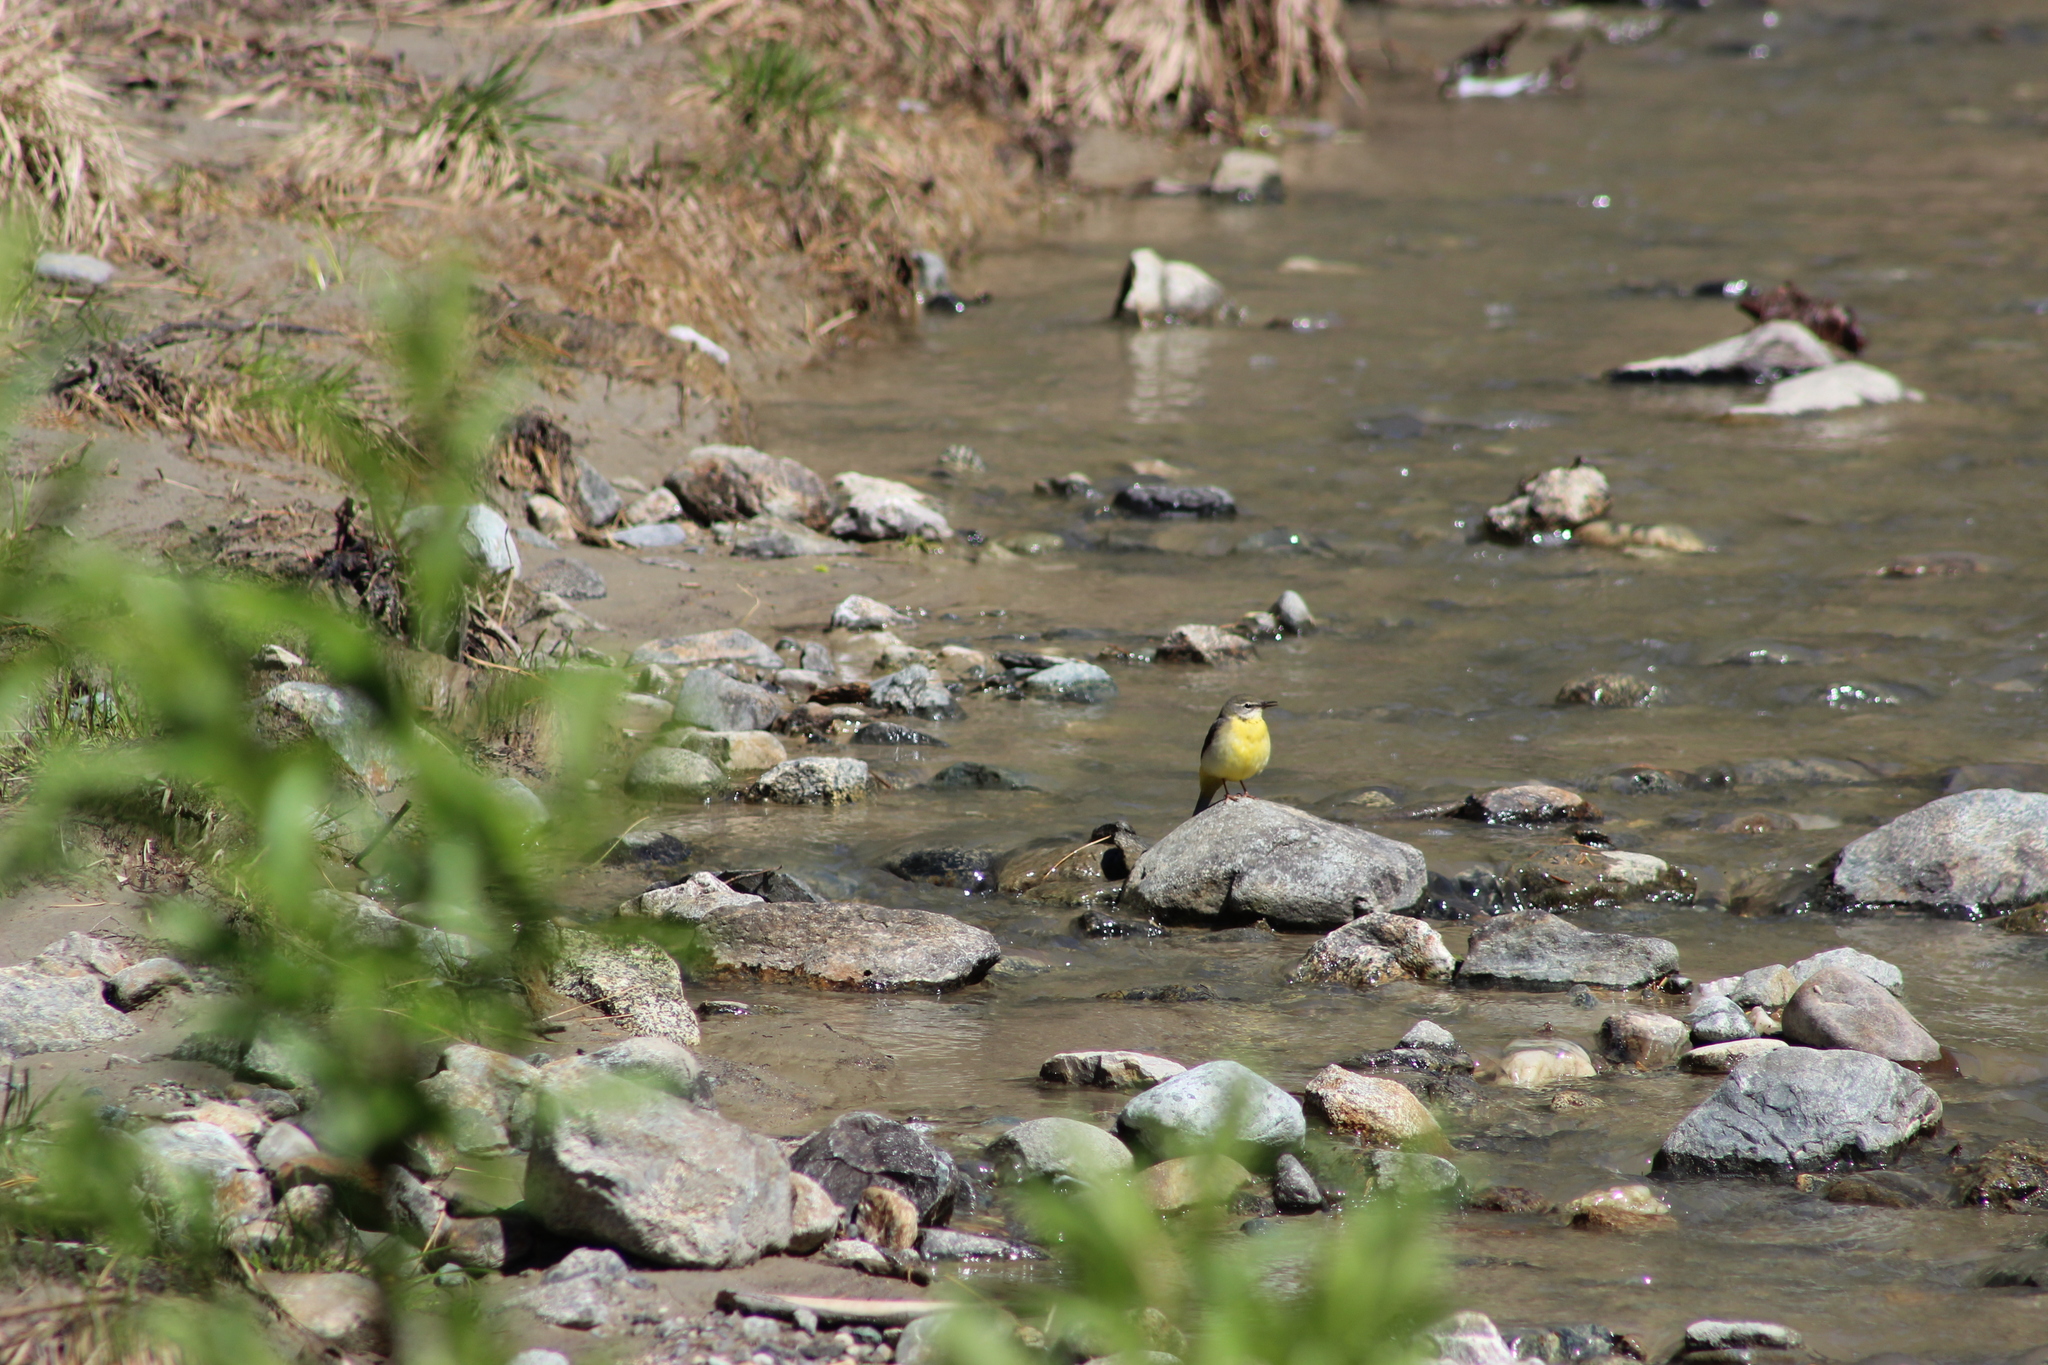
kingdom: Animalia
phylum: Chordata
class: Aves
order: Passeriformes
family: Motacillidae
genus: Motacilla
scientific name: Motacilla cinerea
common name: Grey wagtail
